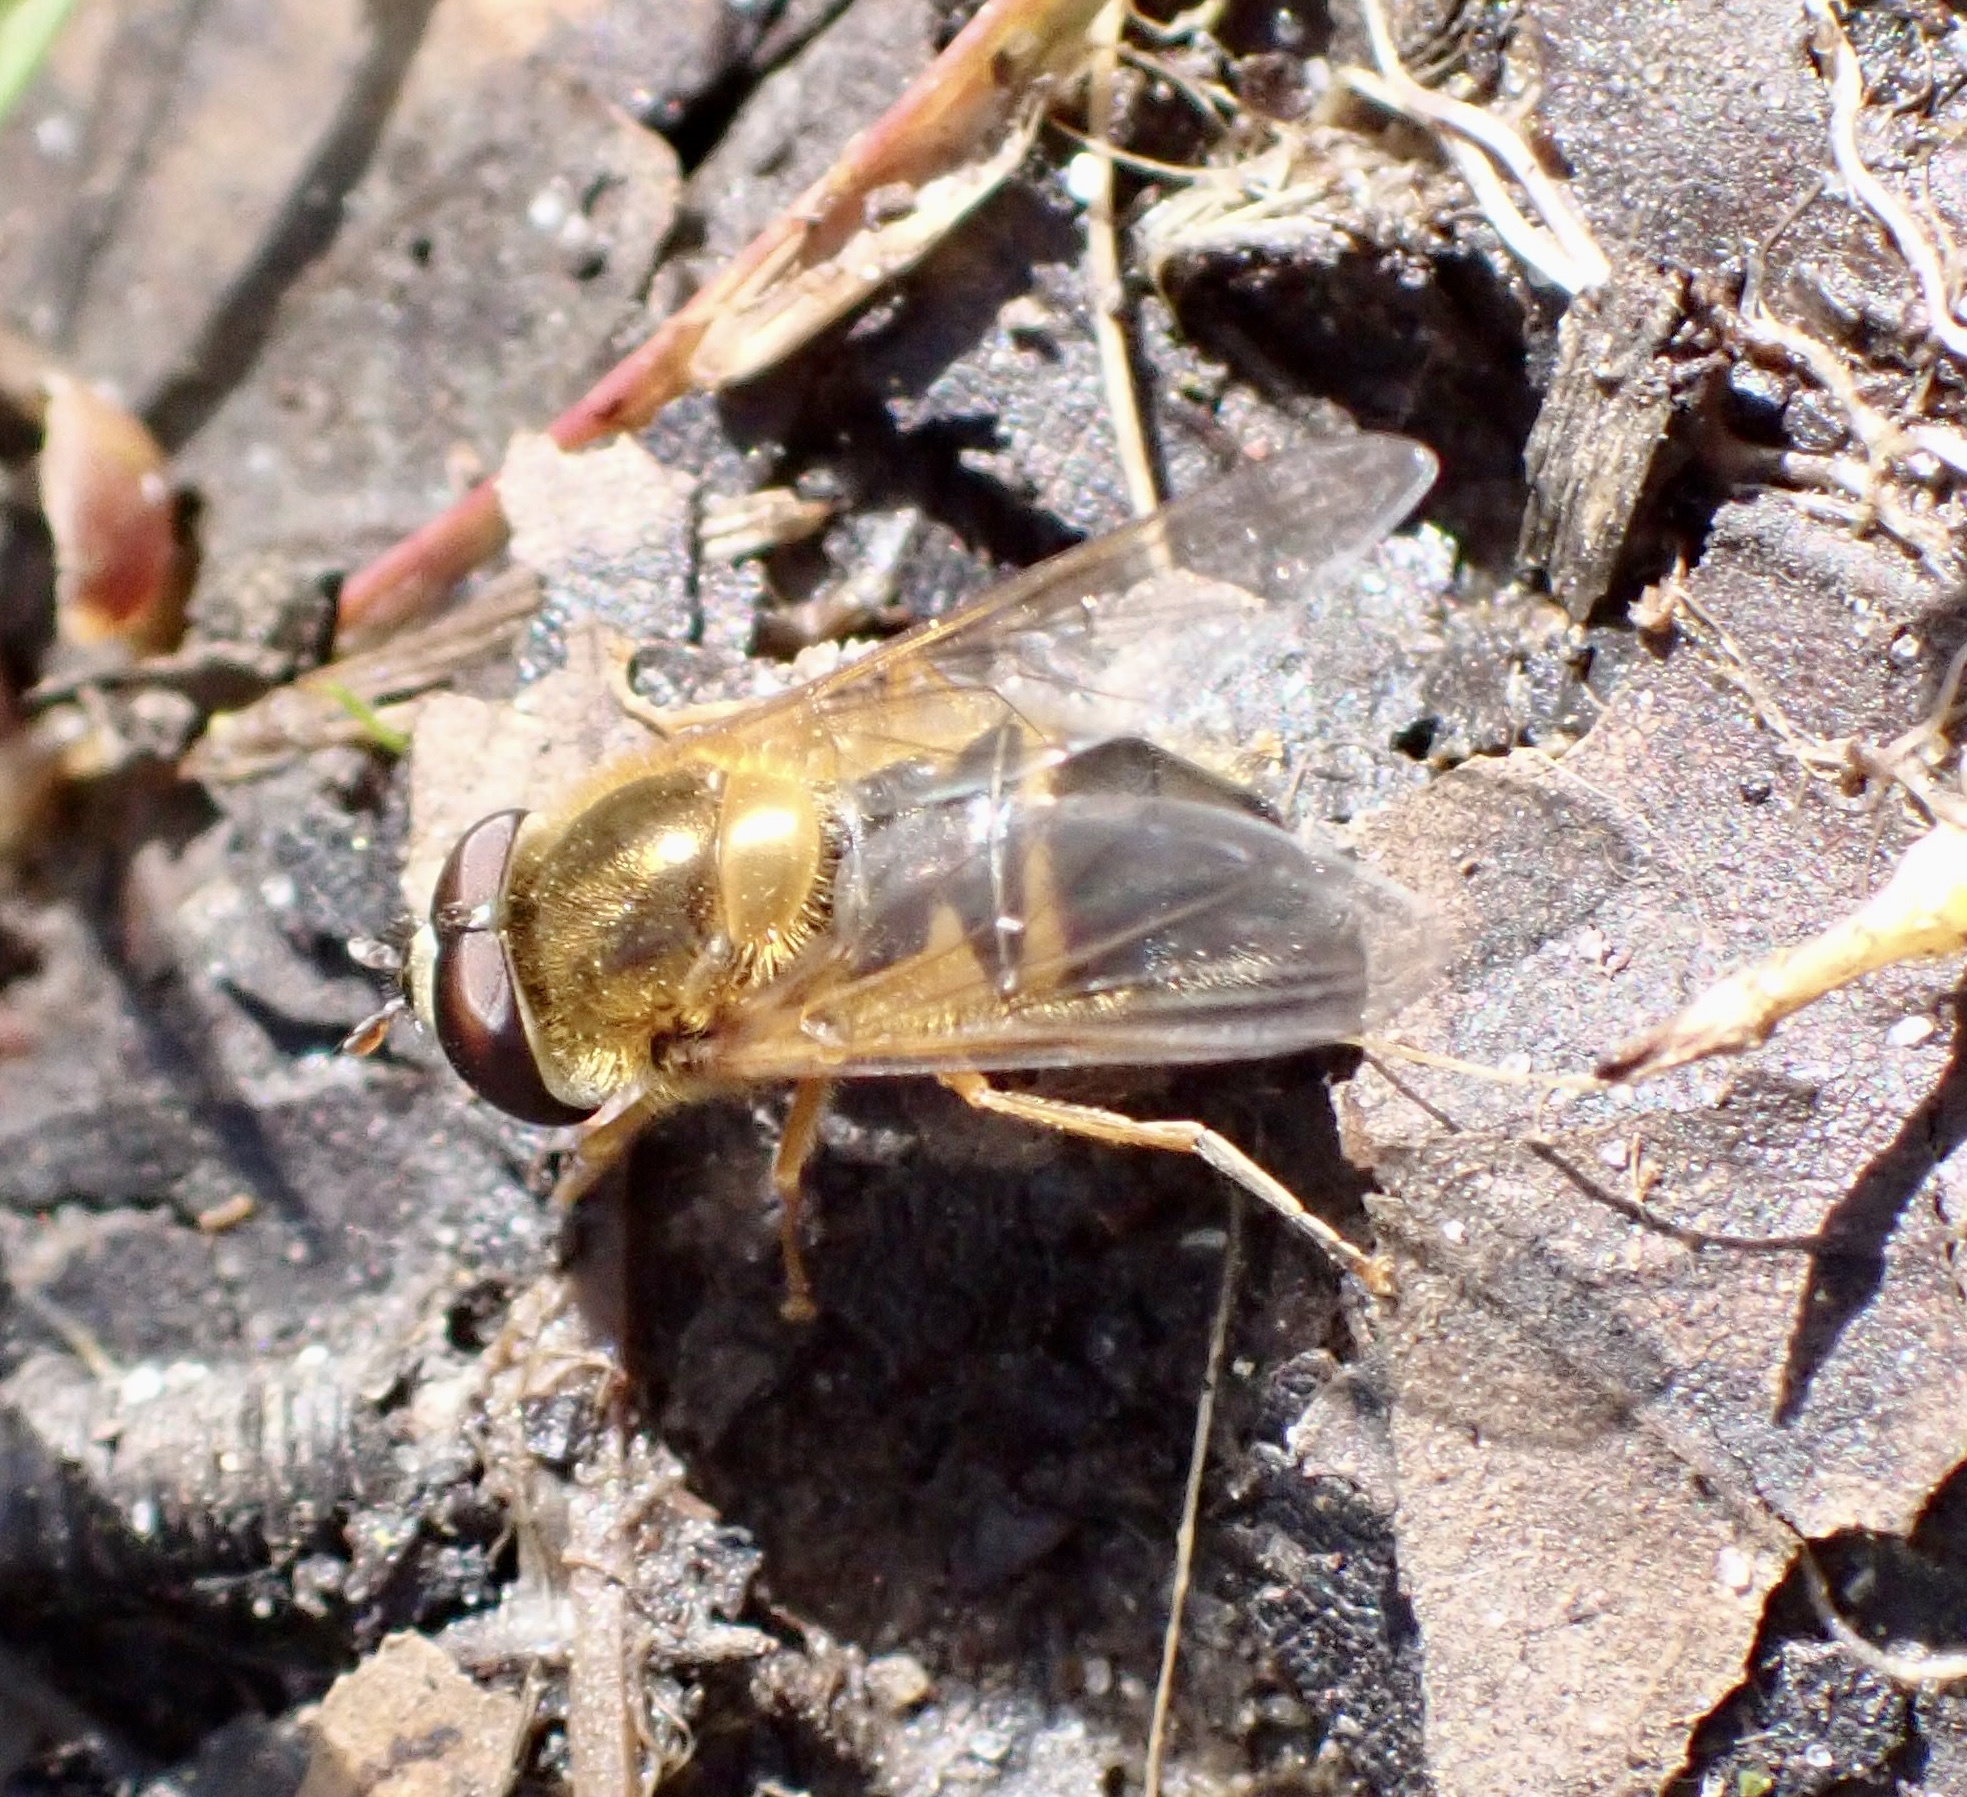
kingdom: Animalia
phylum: Arthropoda
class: Insecta
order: Diptera
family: Syrphidae
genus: Epistrophe
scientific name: Epistrophe eligans
